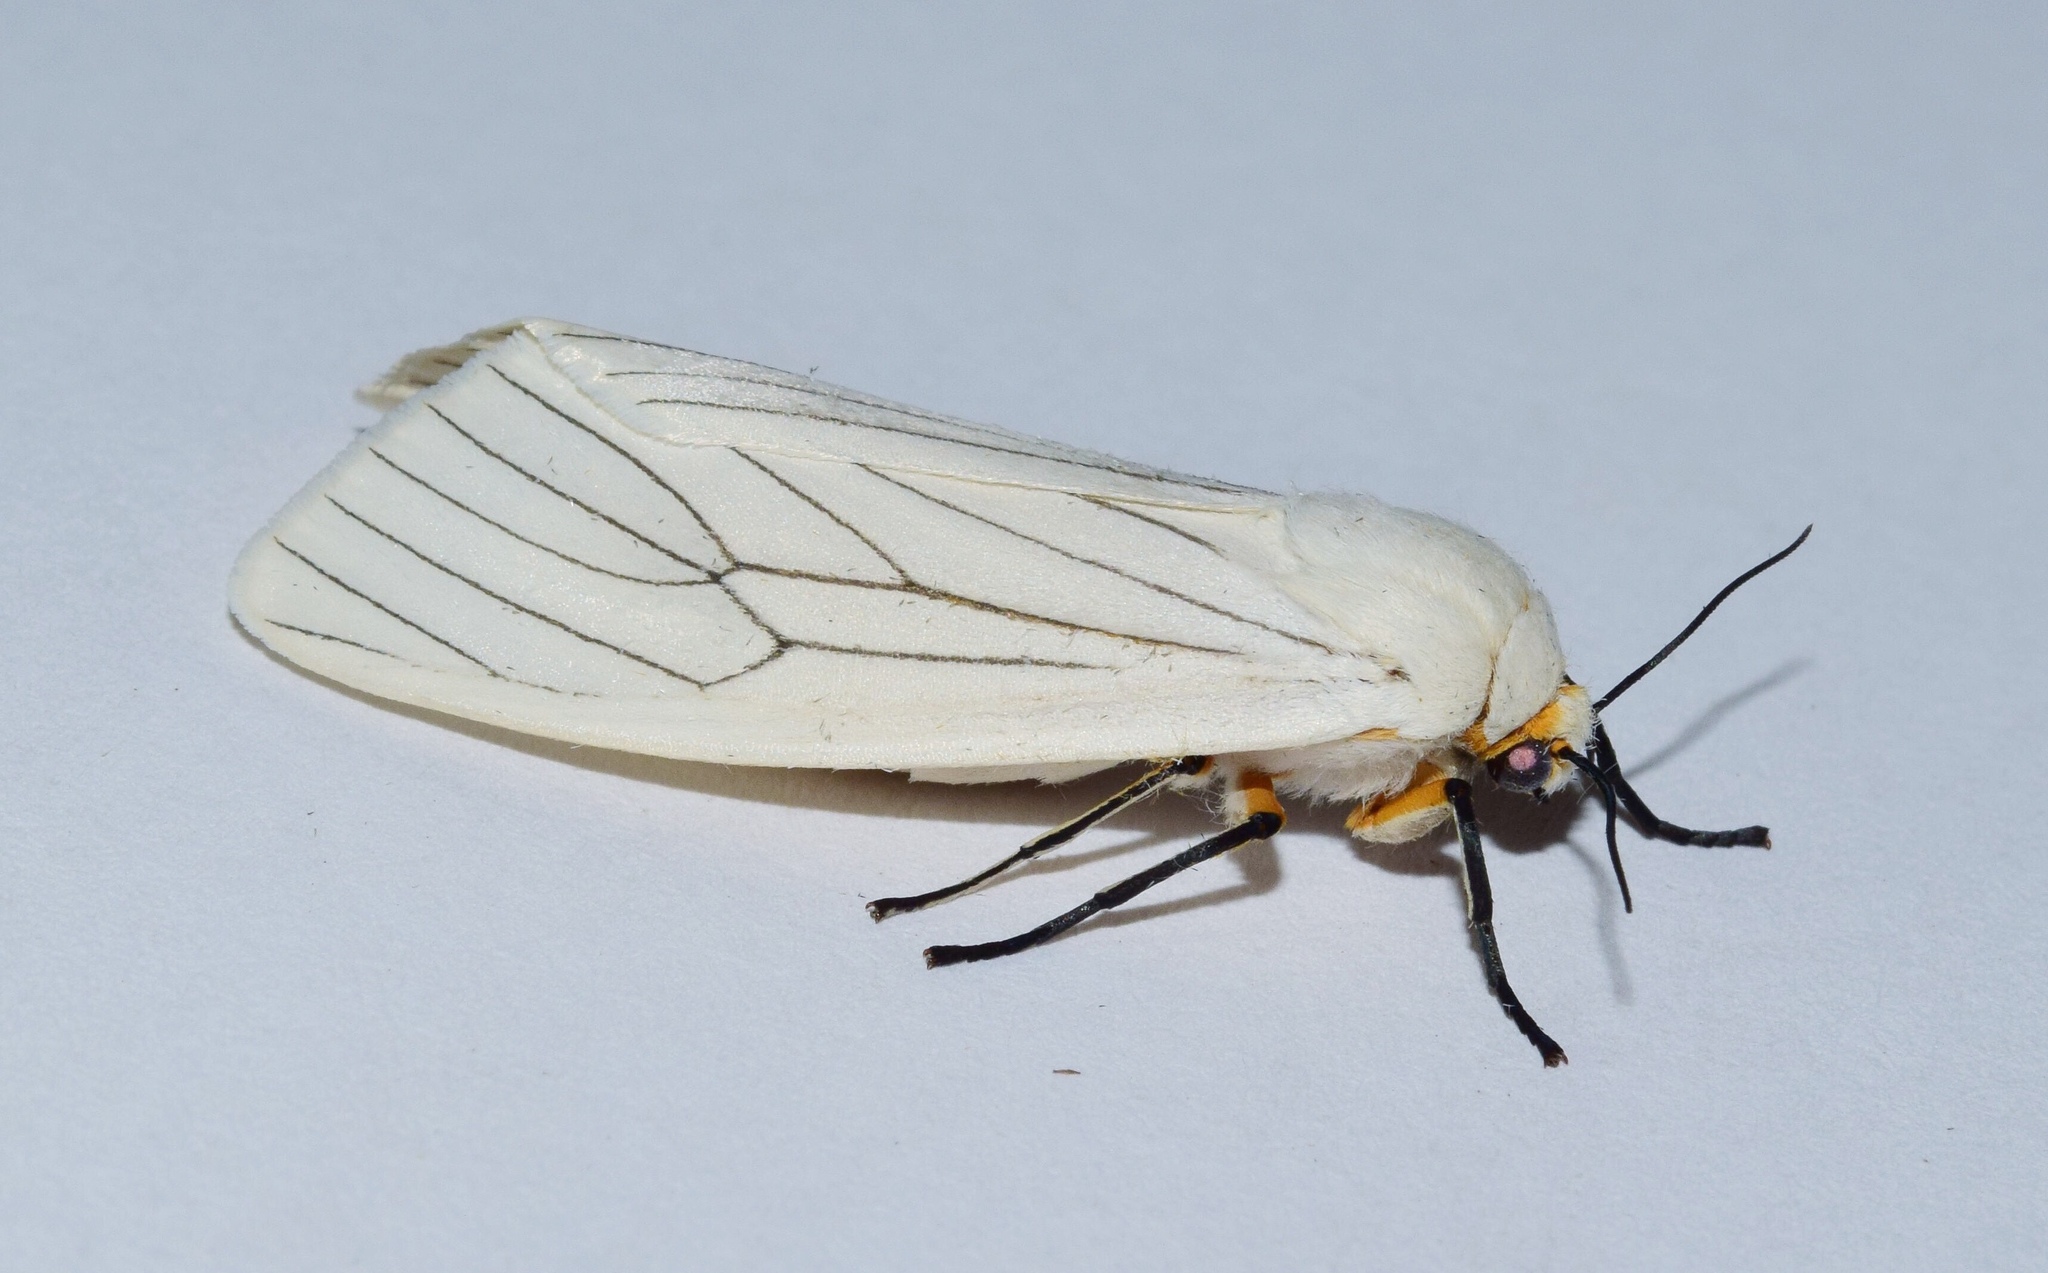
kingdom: Animalia
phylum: Arthropoda
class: Insecta
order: Lepidoptera
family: Erebidae
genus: Ustjuzhania
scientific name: Ustjuzhania lineata
